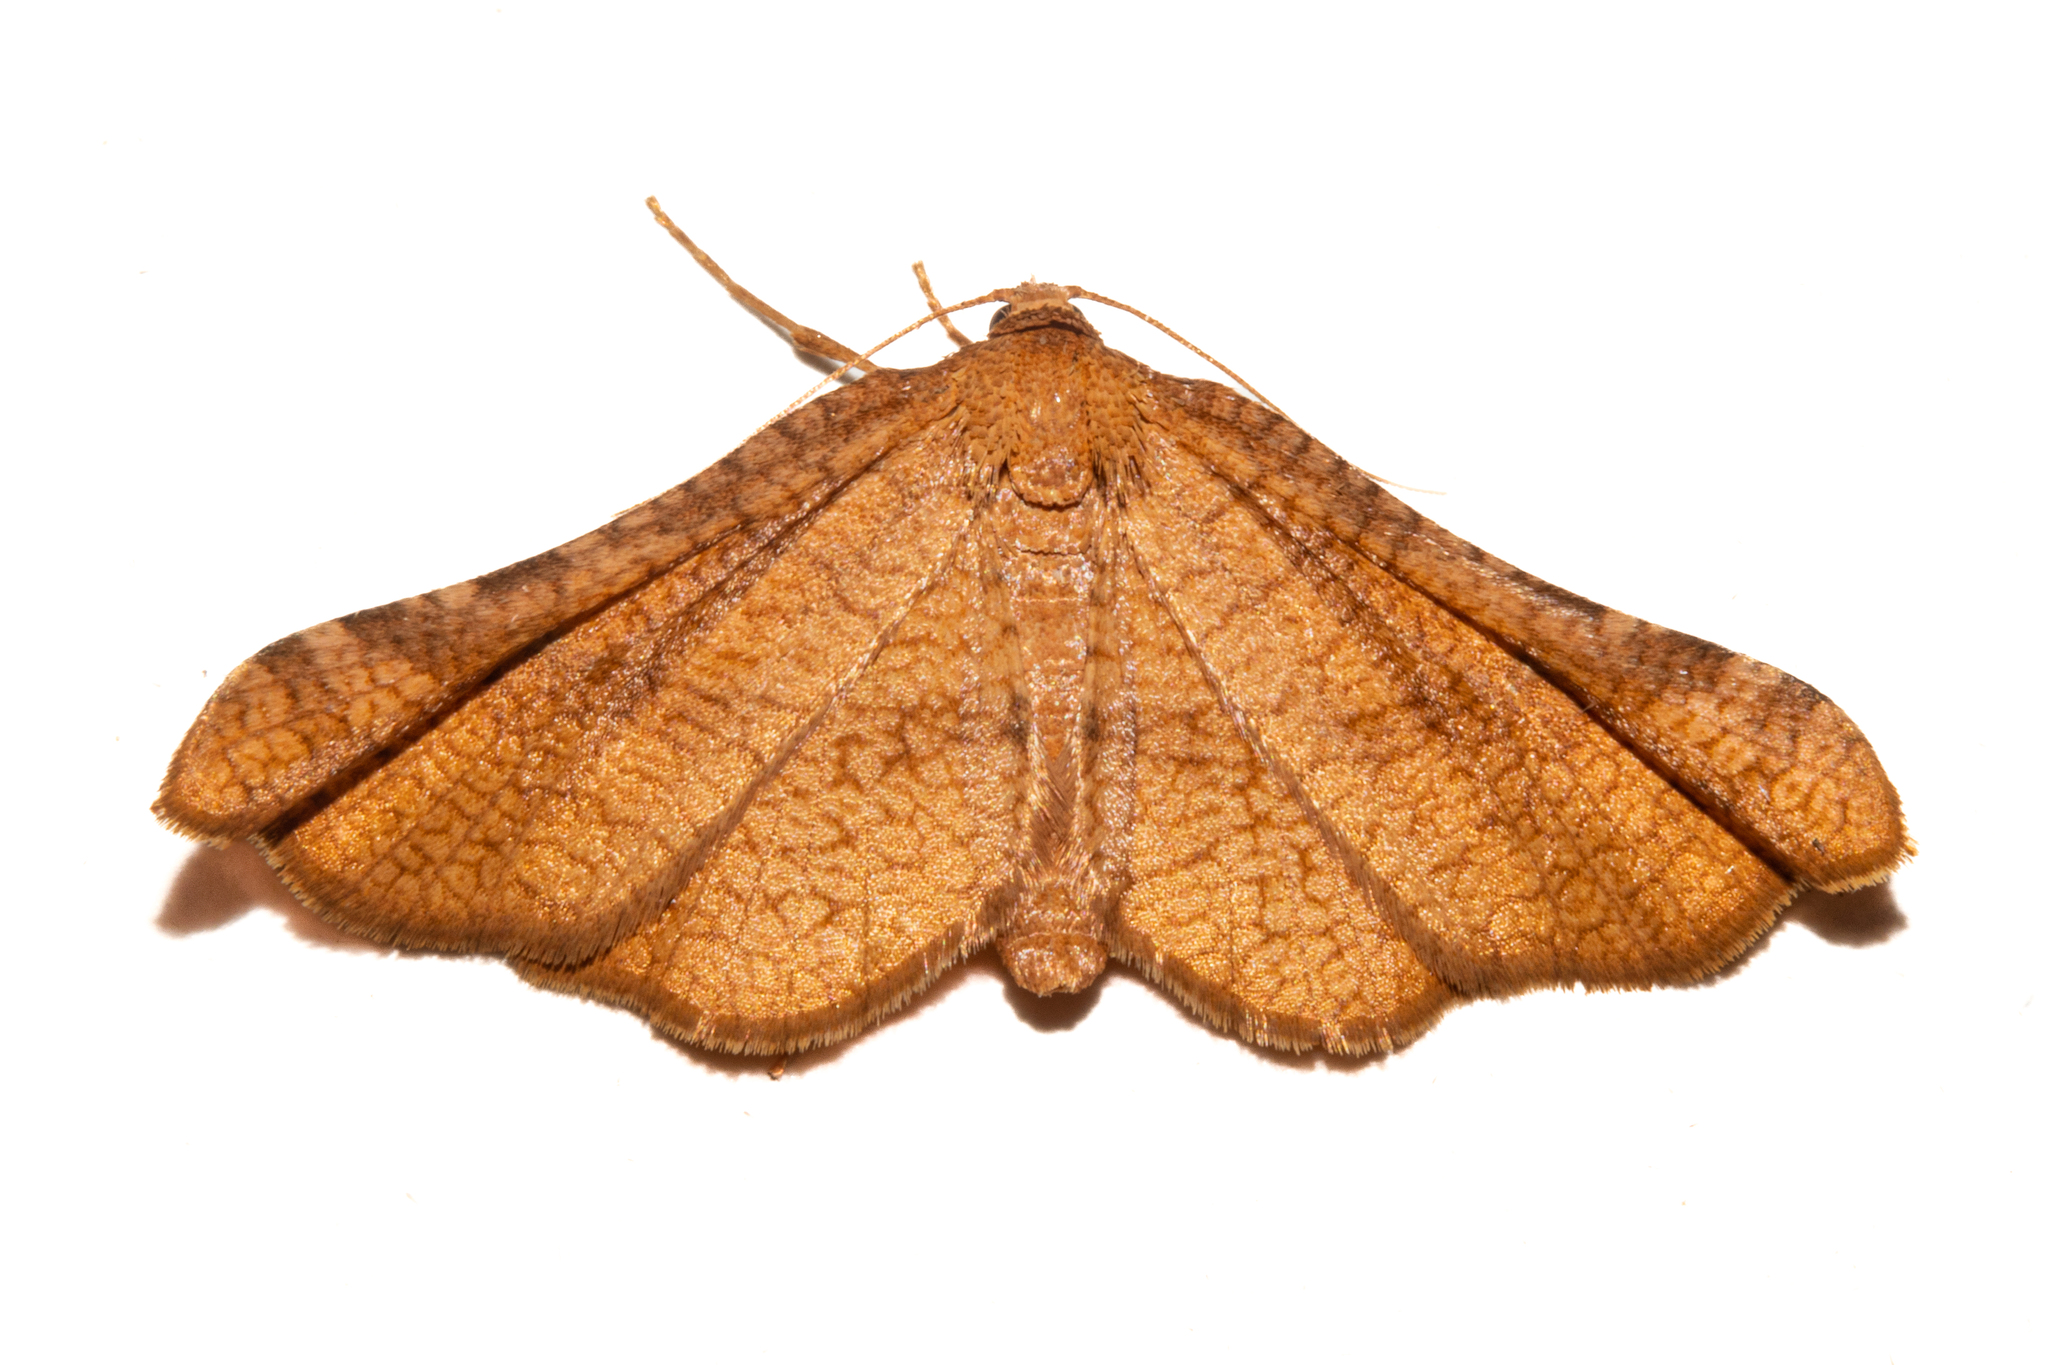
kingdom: Animalia
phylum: Arthropoda
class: Insecta
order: Lepidoptera
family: Thyrididae
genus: Morova
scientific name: Morova subfasciata
